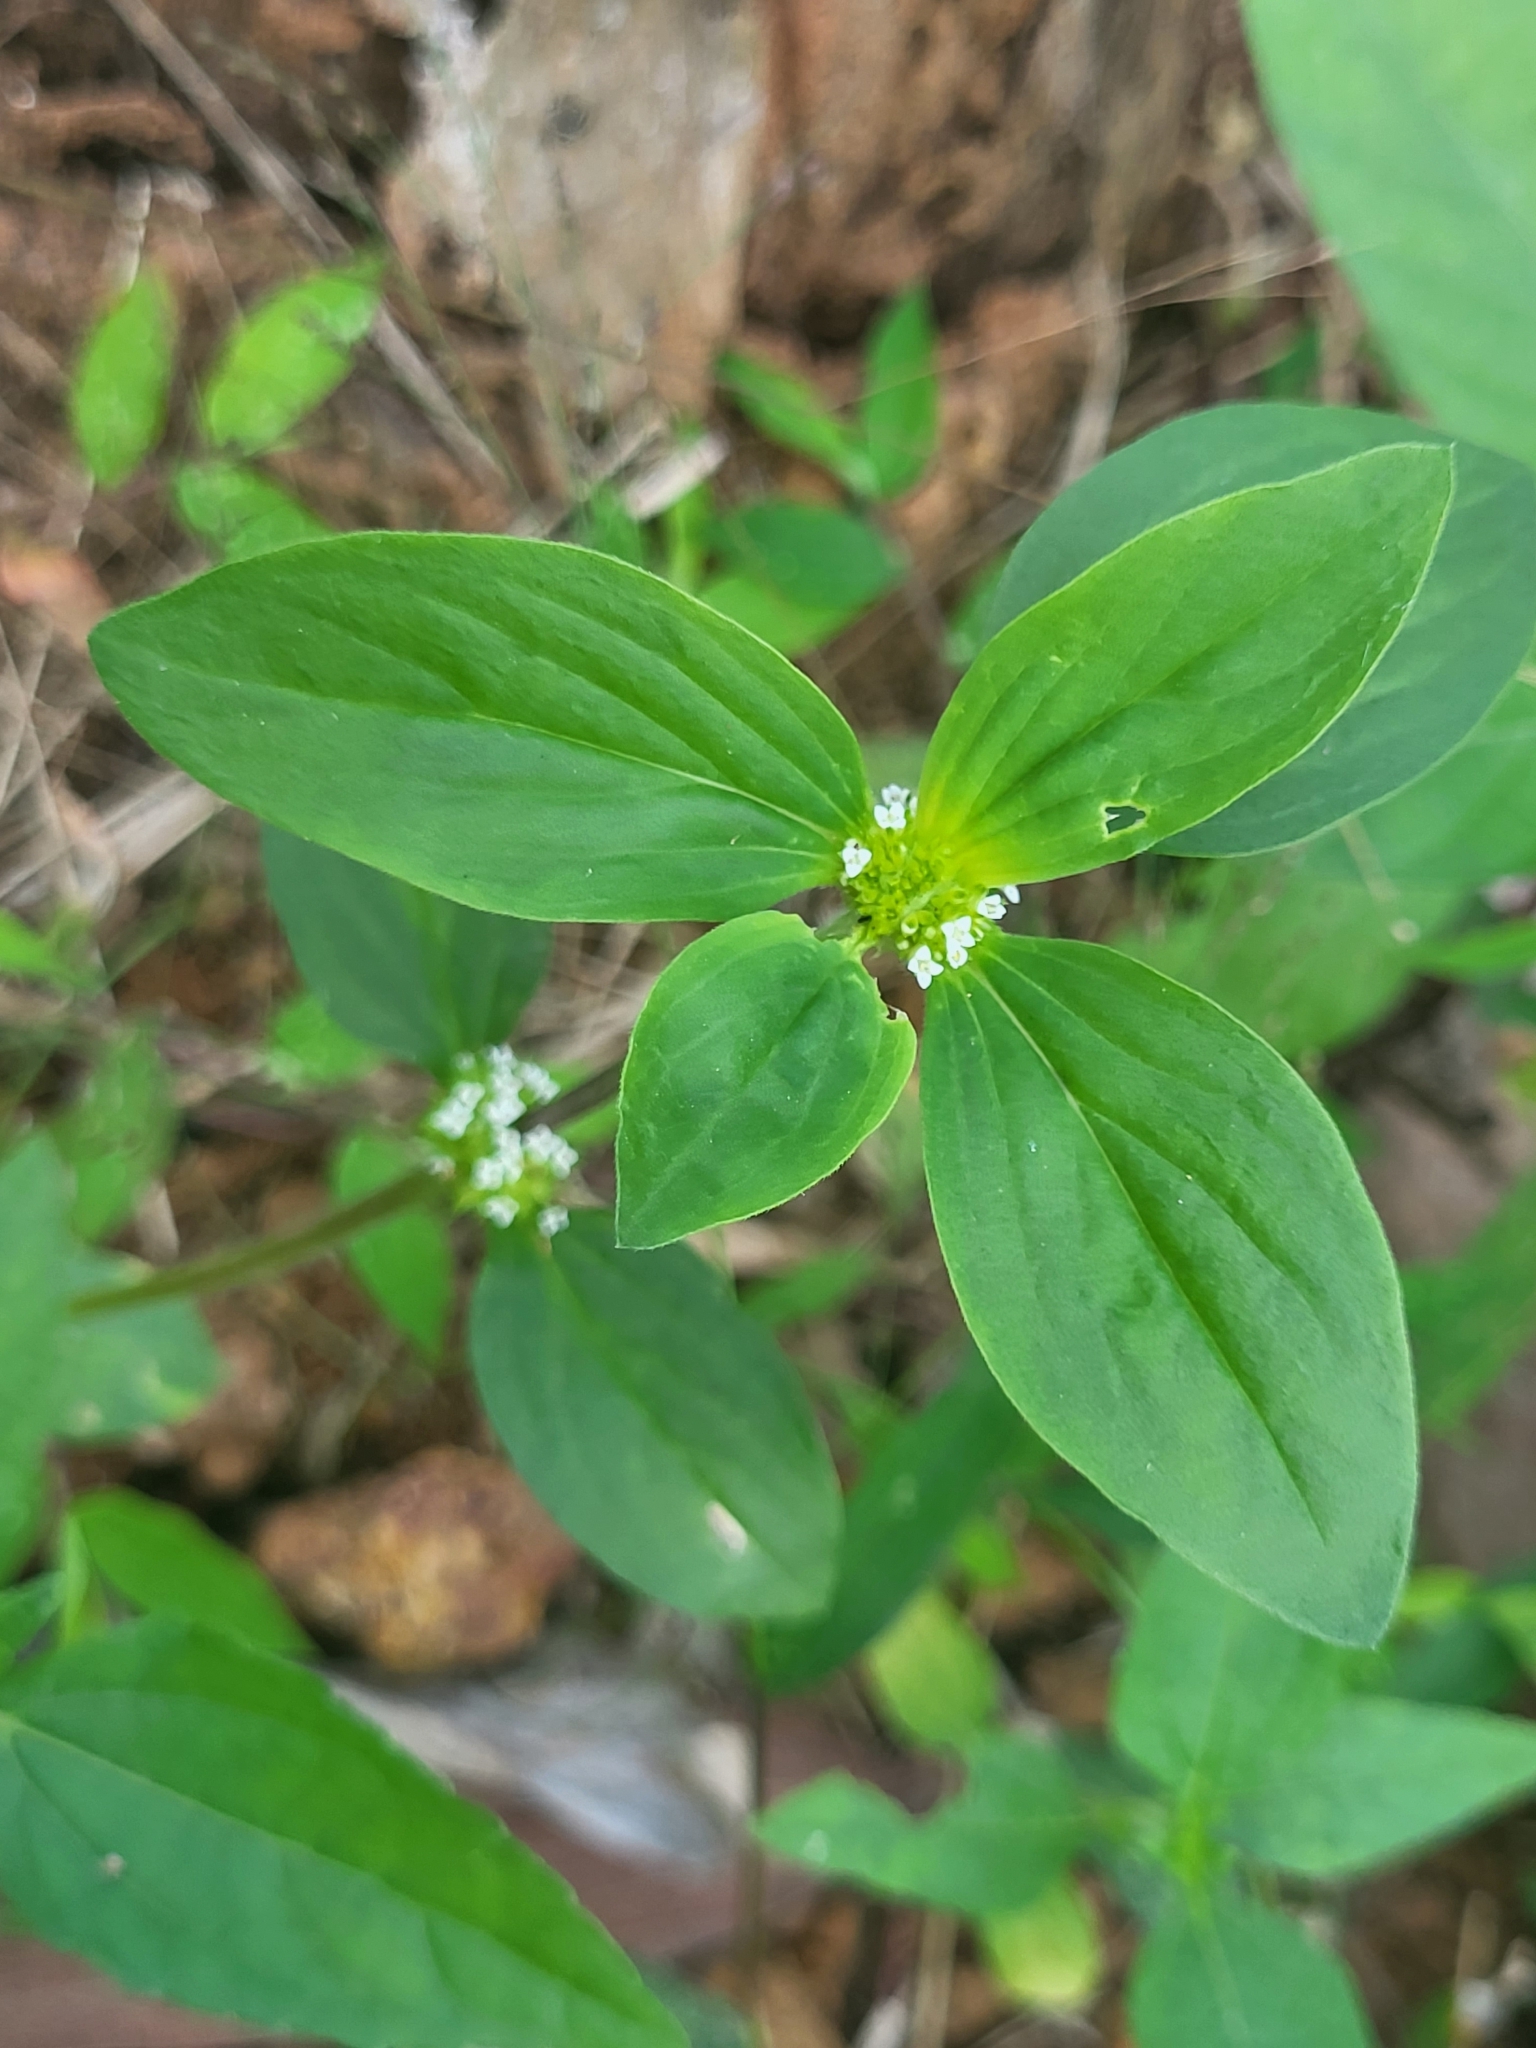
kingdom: Plantae
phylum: Tracheophyta
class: Magnoliopsida
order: Gentianales
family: Rubiaceae
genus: Mitracarpus
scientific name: Mitracarpus hirtus
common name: Tropical girdlepod
